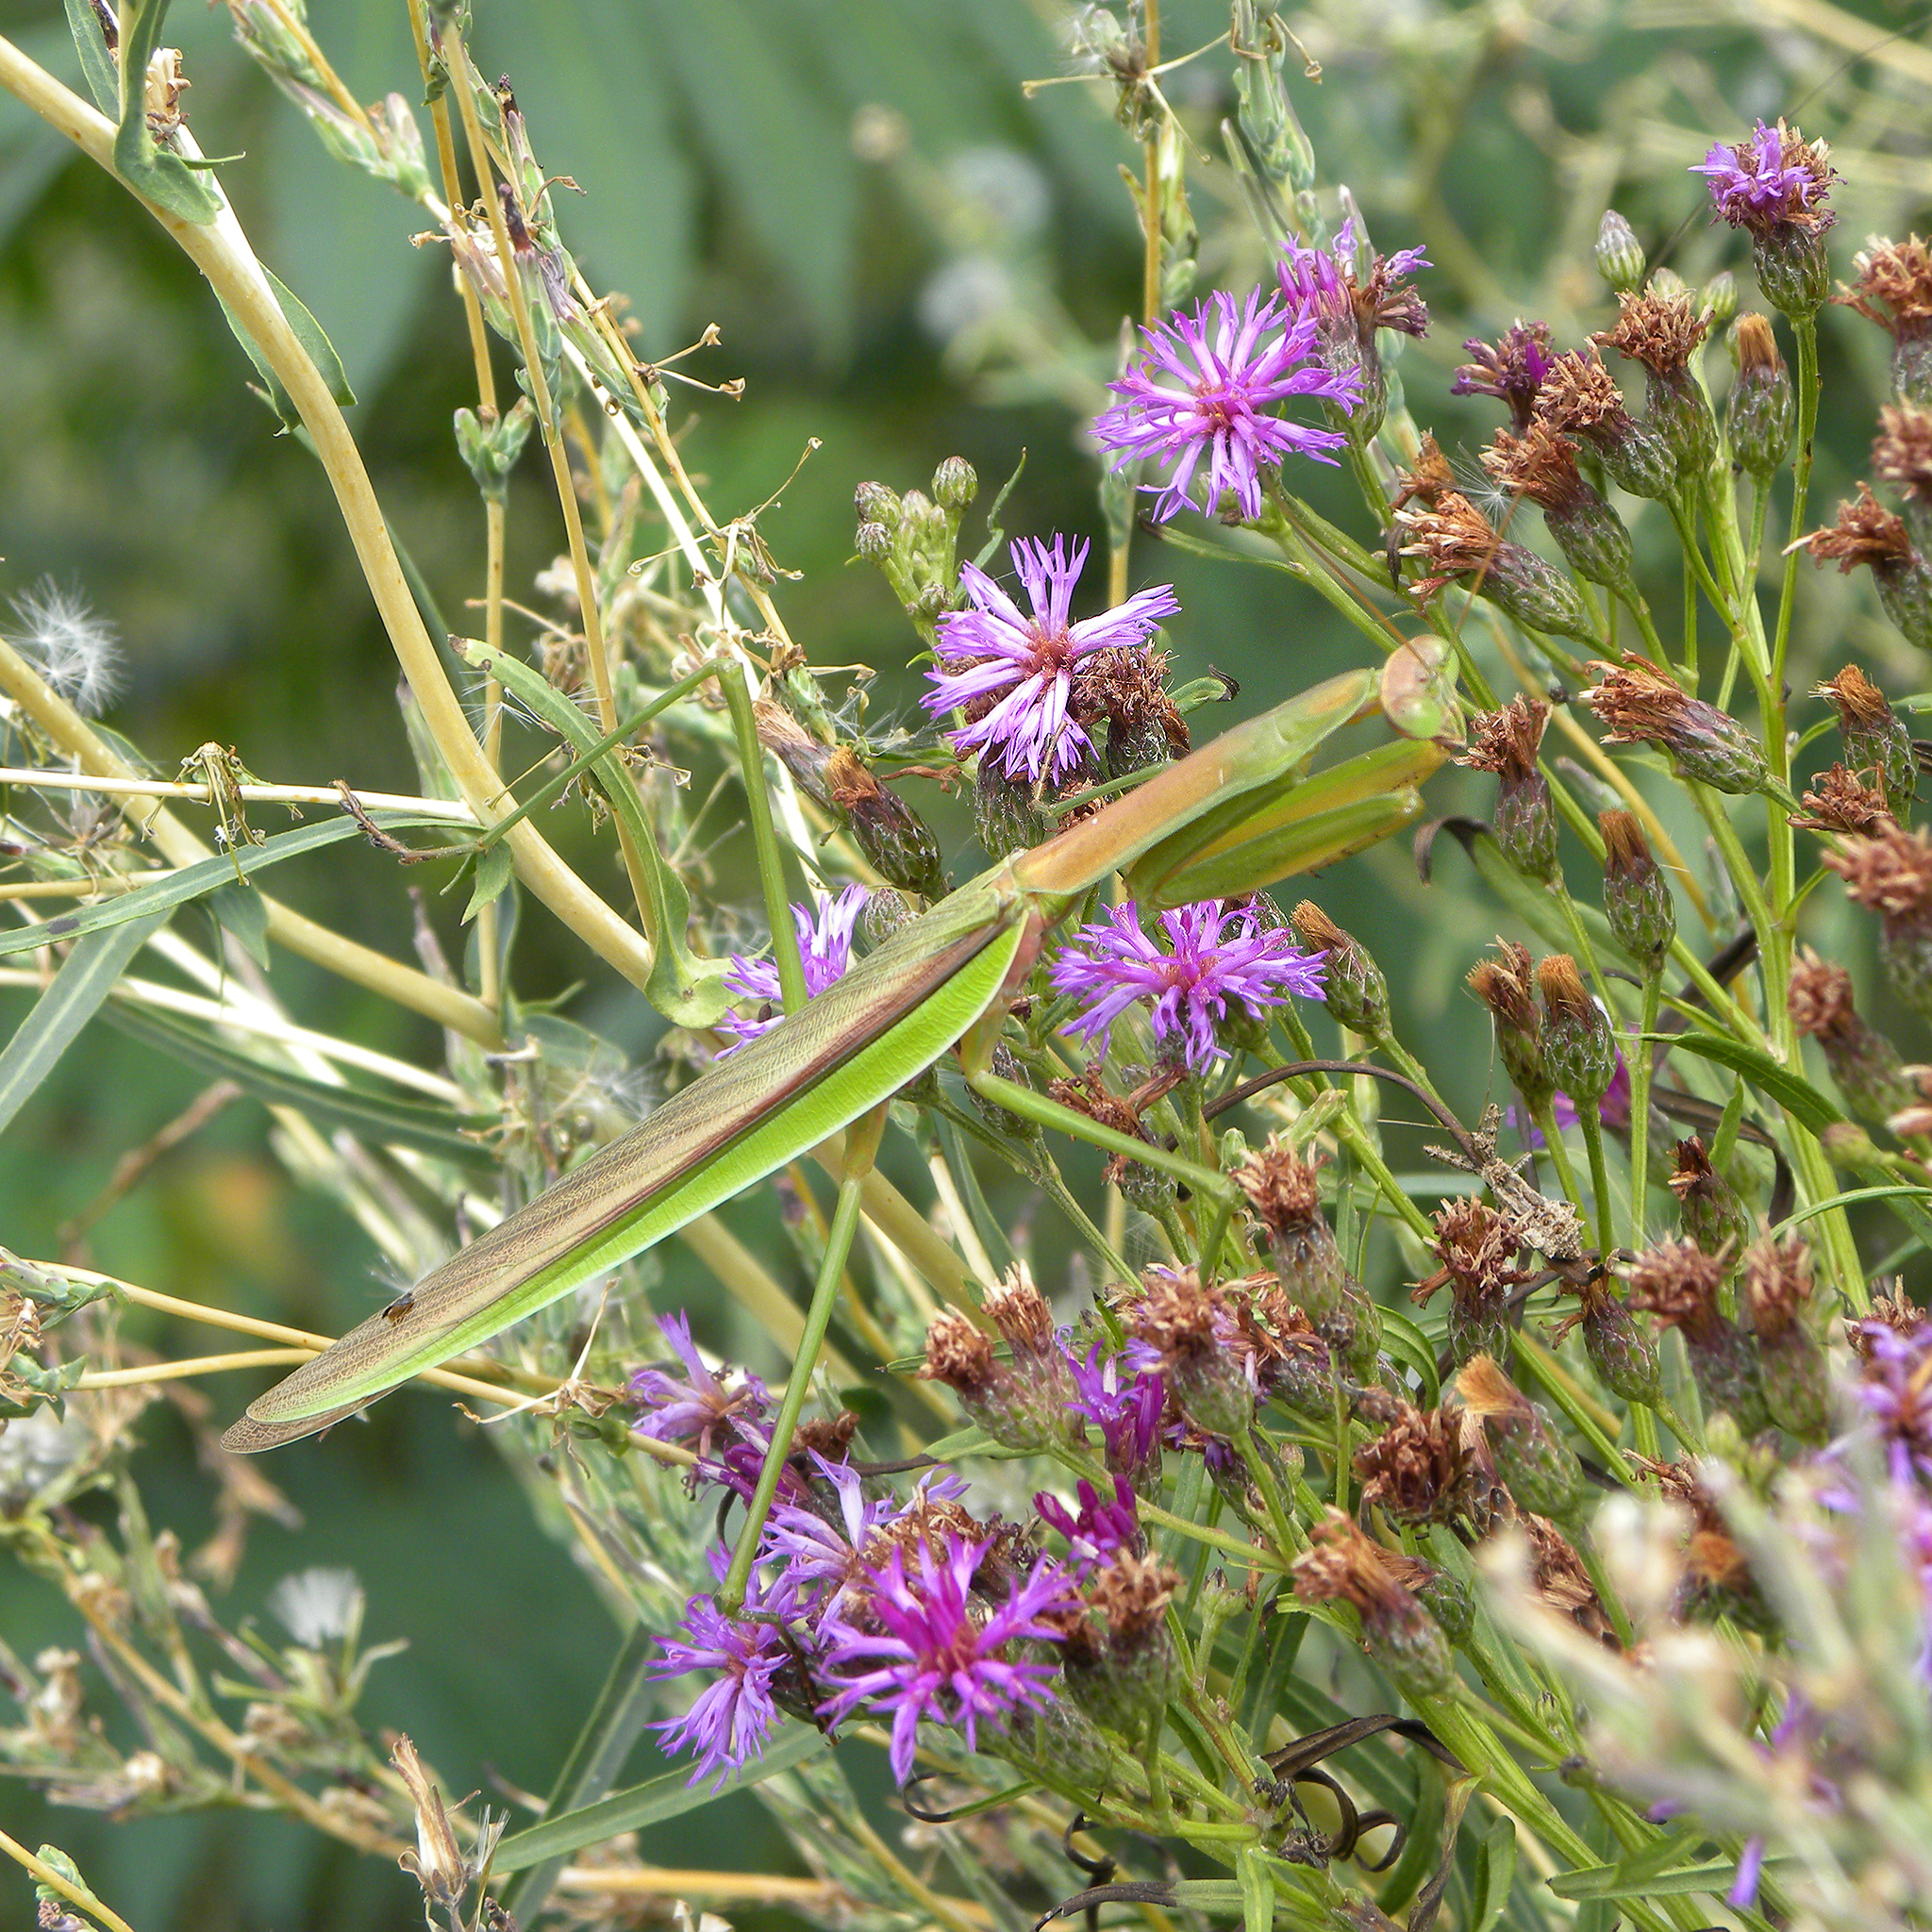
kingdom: Animalia
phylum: Arthropoda
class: Insecta
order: Mantodea
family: Mantidae
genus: Tenodera
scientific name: Tenodera sinensis
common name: Chinese mantis
